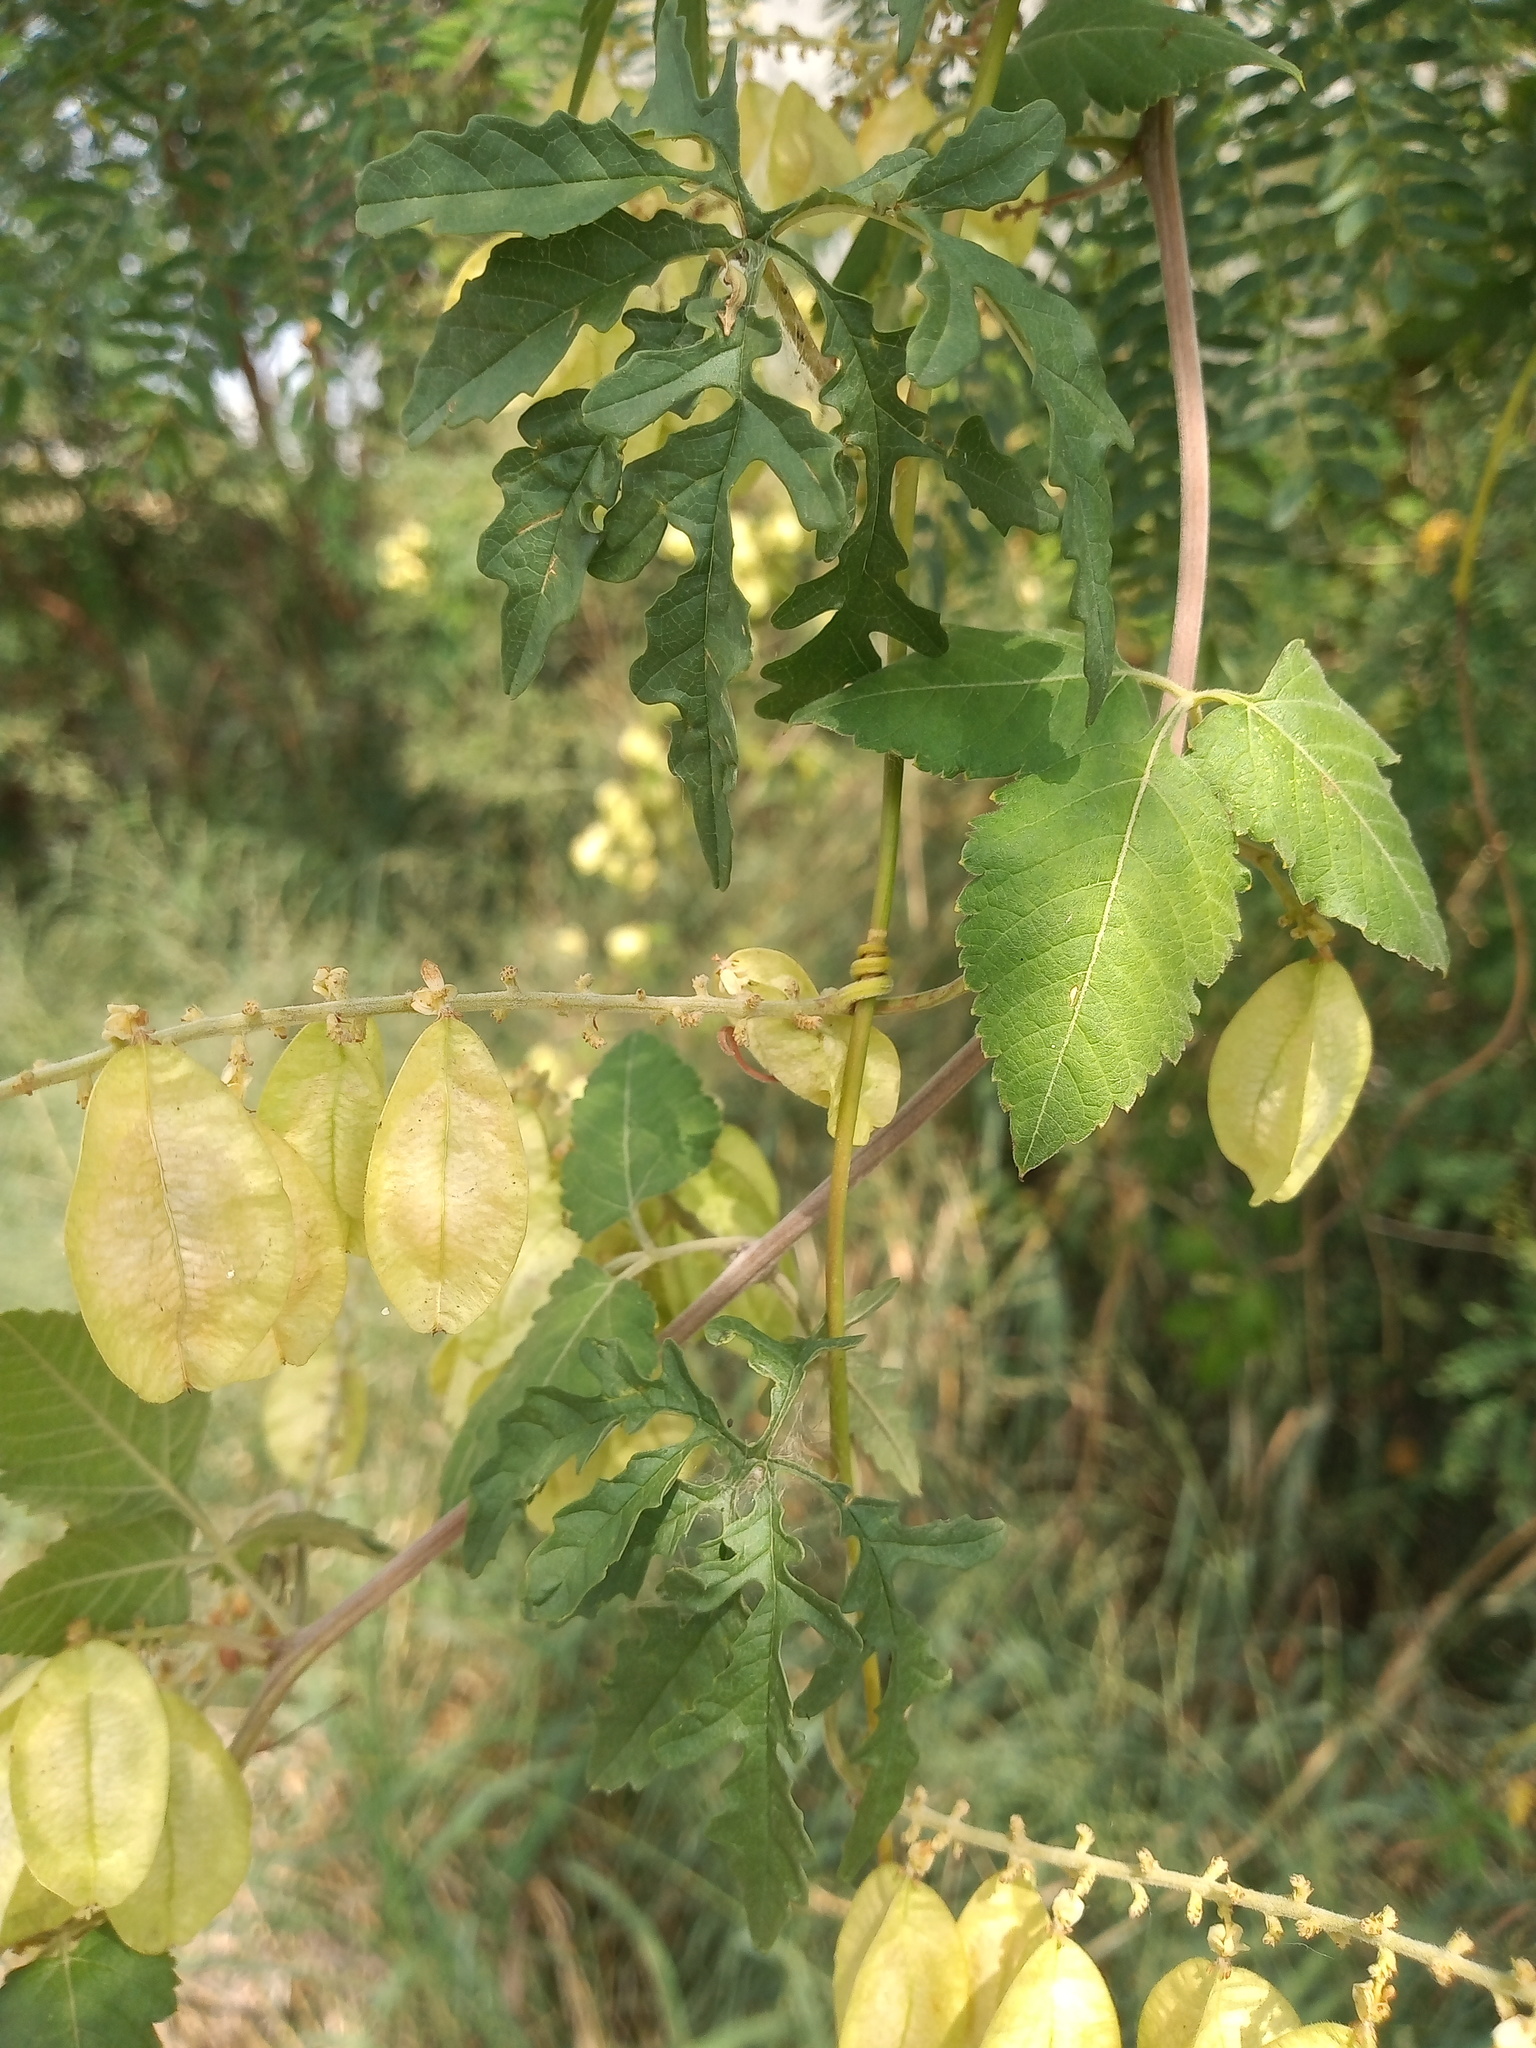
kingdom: Plantae
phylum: Tracheophyta
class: Magnoliopsida
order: Solanales
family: Convolvulaceae
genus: Distimake
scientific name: Distimake dissectus
